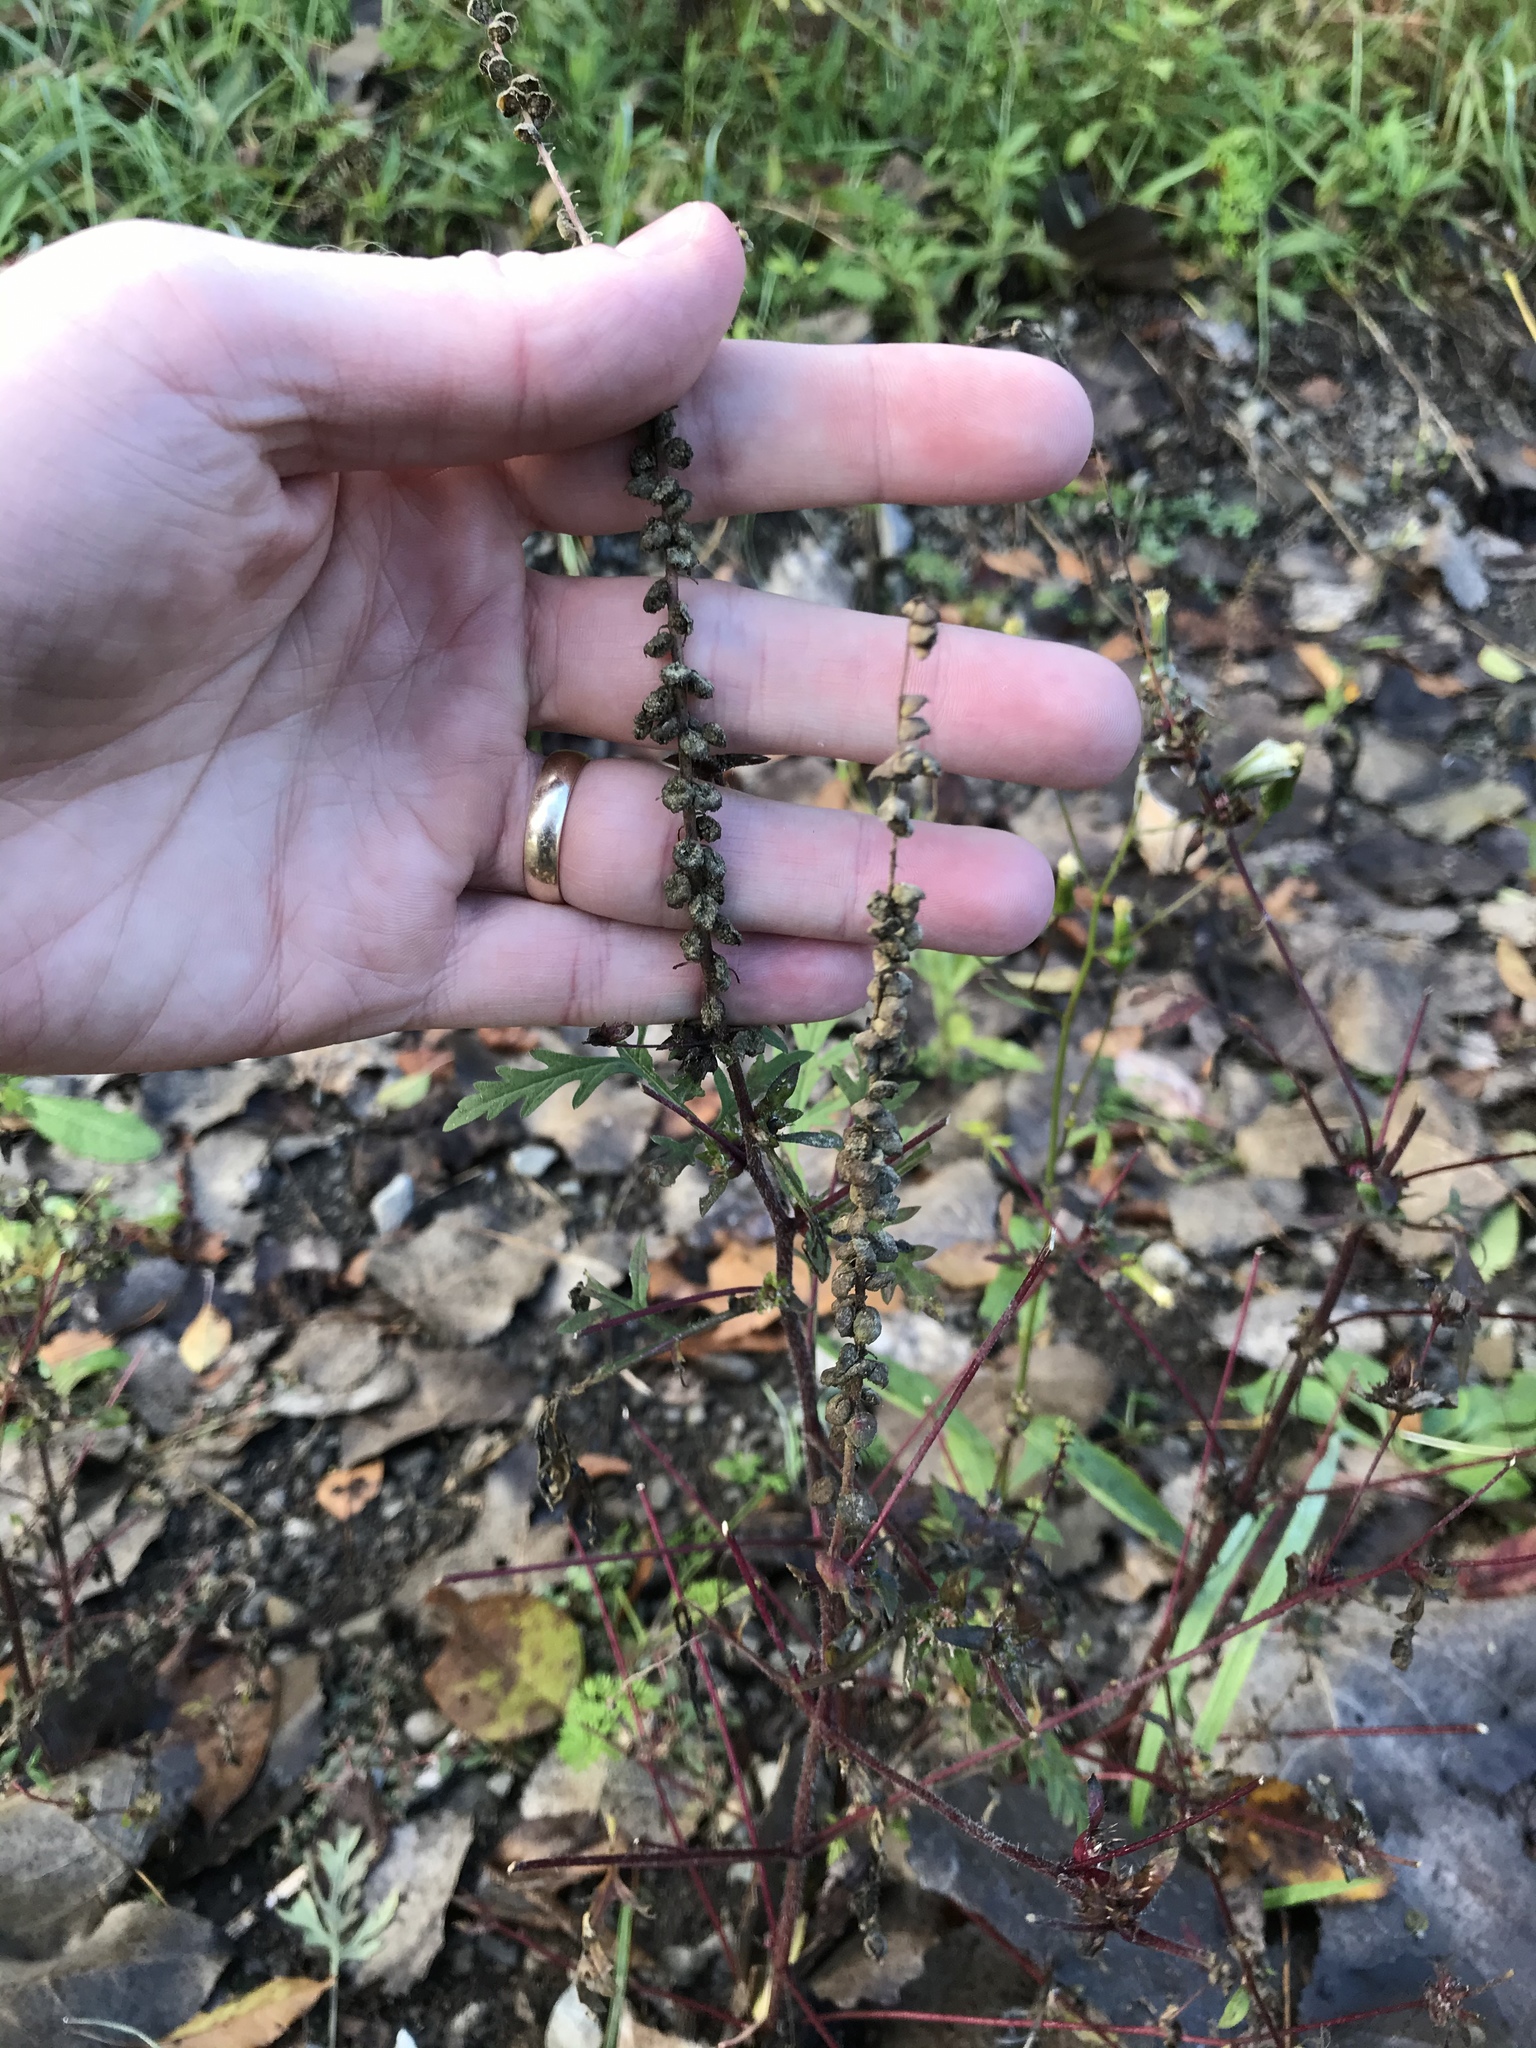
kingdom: Plantae
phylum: Tracheophyta
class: Magnoliopsida
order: Asterales
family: Asteraceae
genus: Ambrosia
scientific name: Ambrosia artemisiifolia
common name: Annual ragweed
